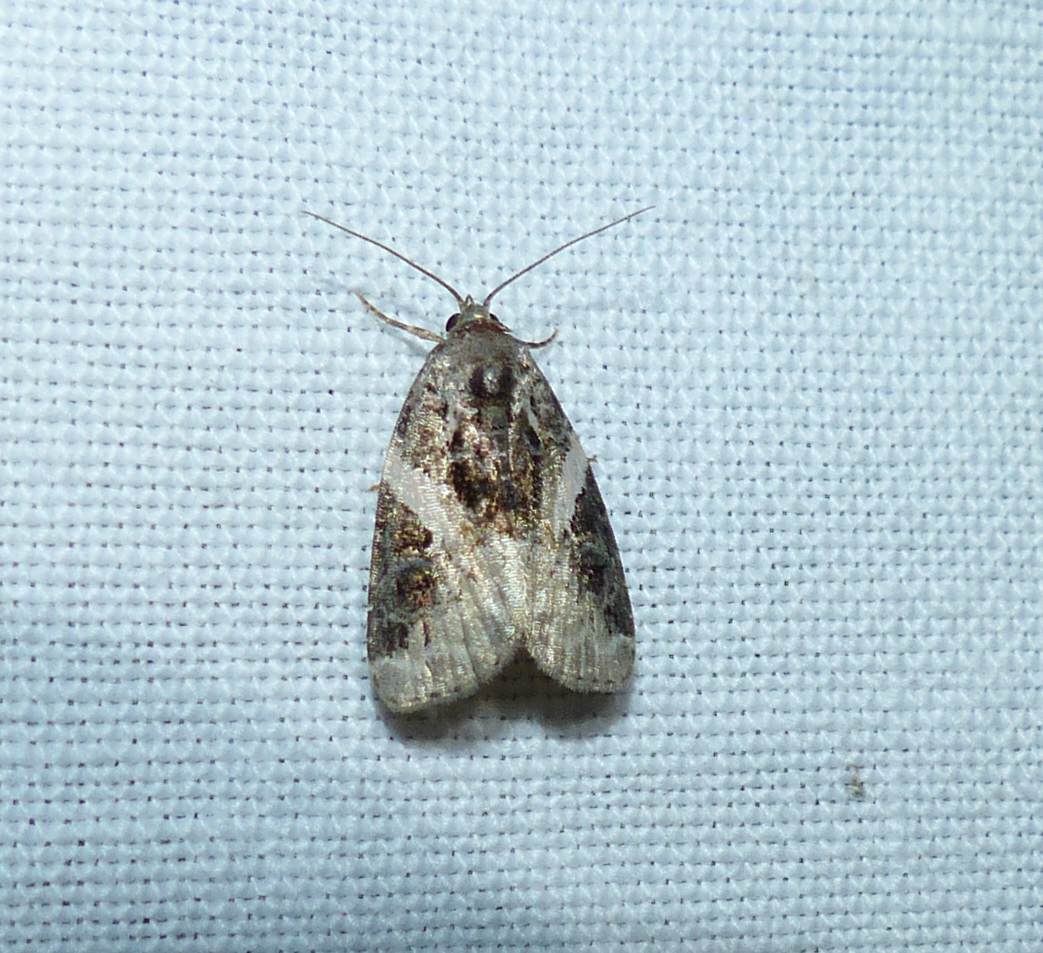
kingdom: Animalia
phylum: Arthropoda
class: Insecta
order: Lepidoptera
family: Noctuidae
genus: Pseudeustrotia
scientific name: Pseudeustrotia carneola
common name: Pink-barred lithacodia moth
